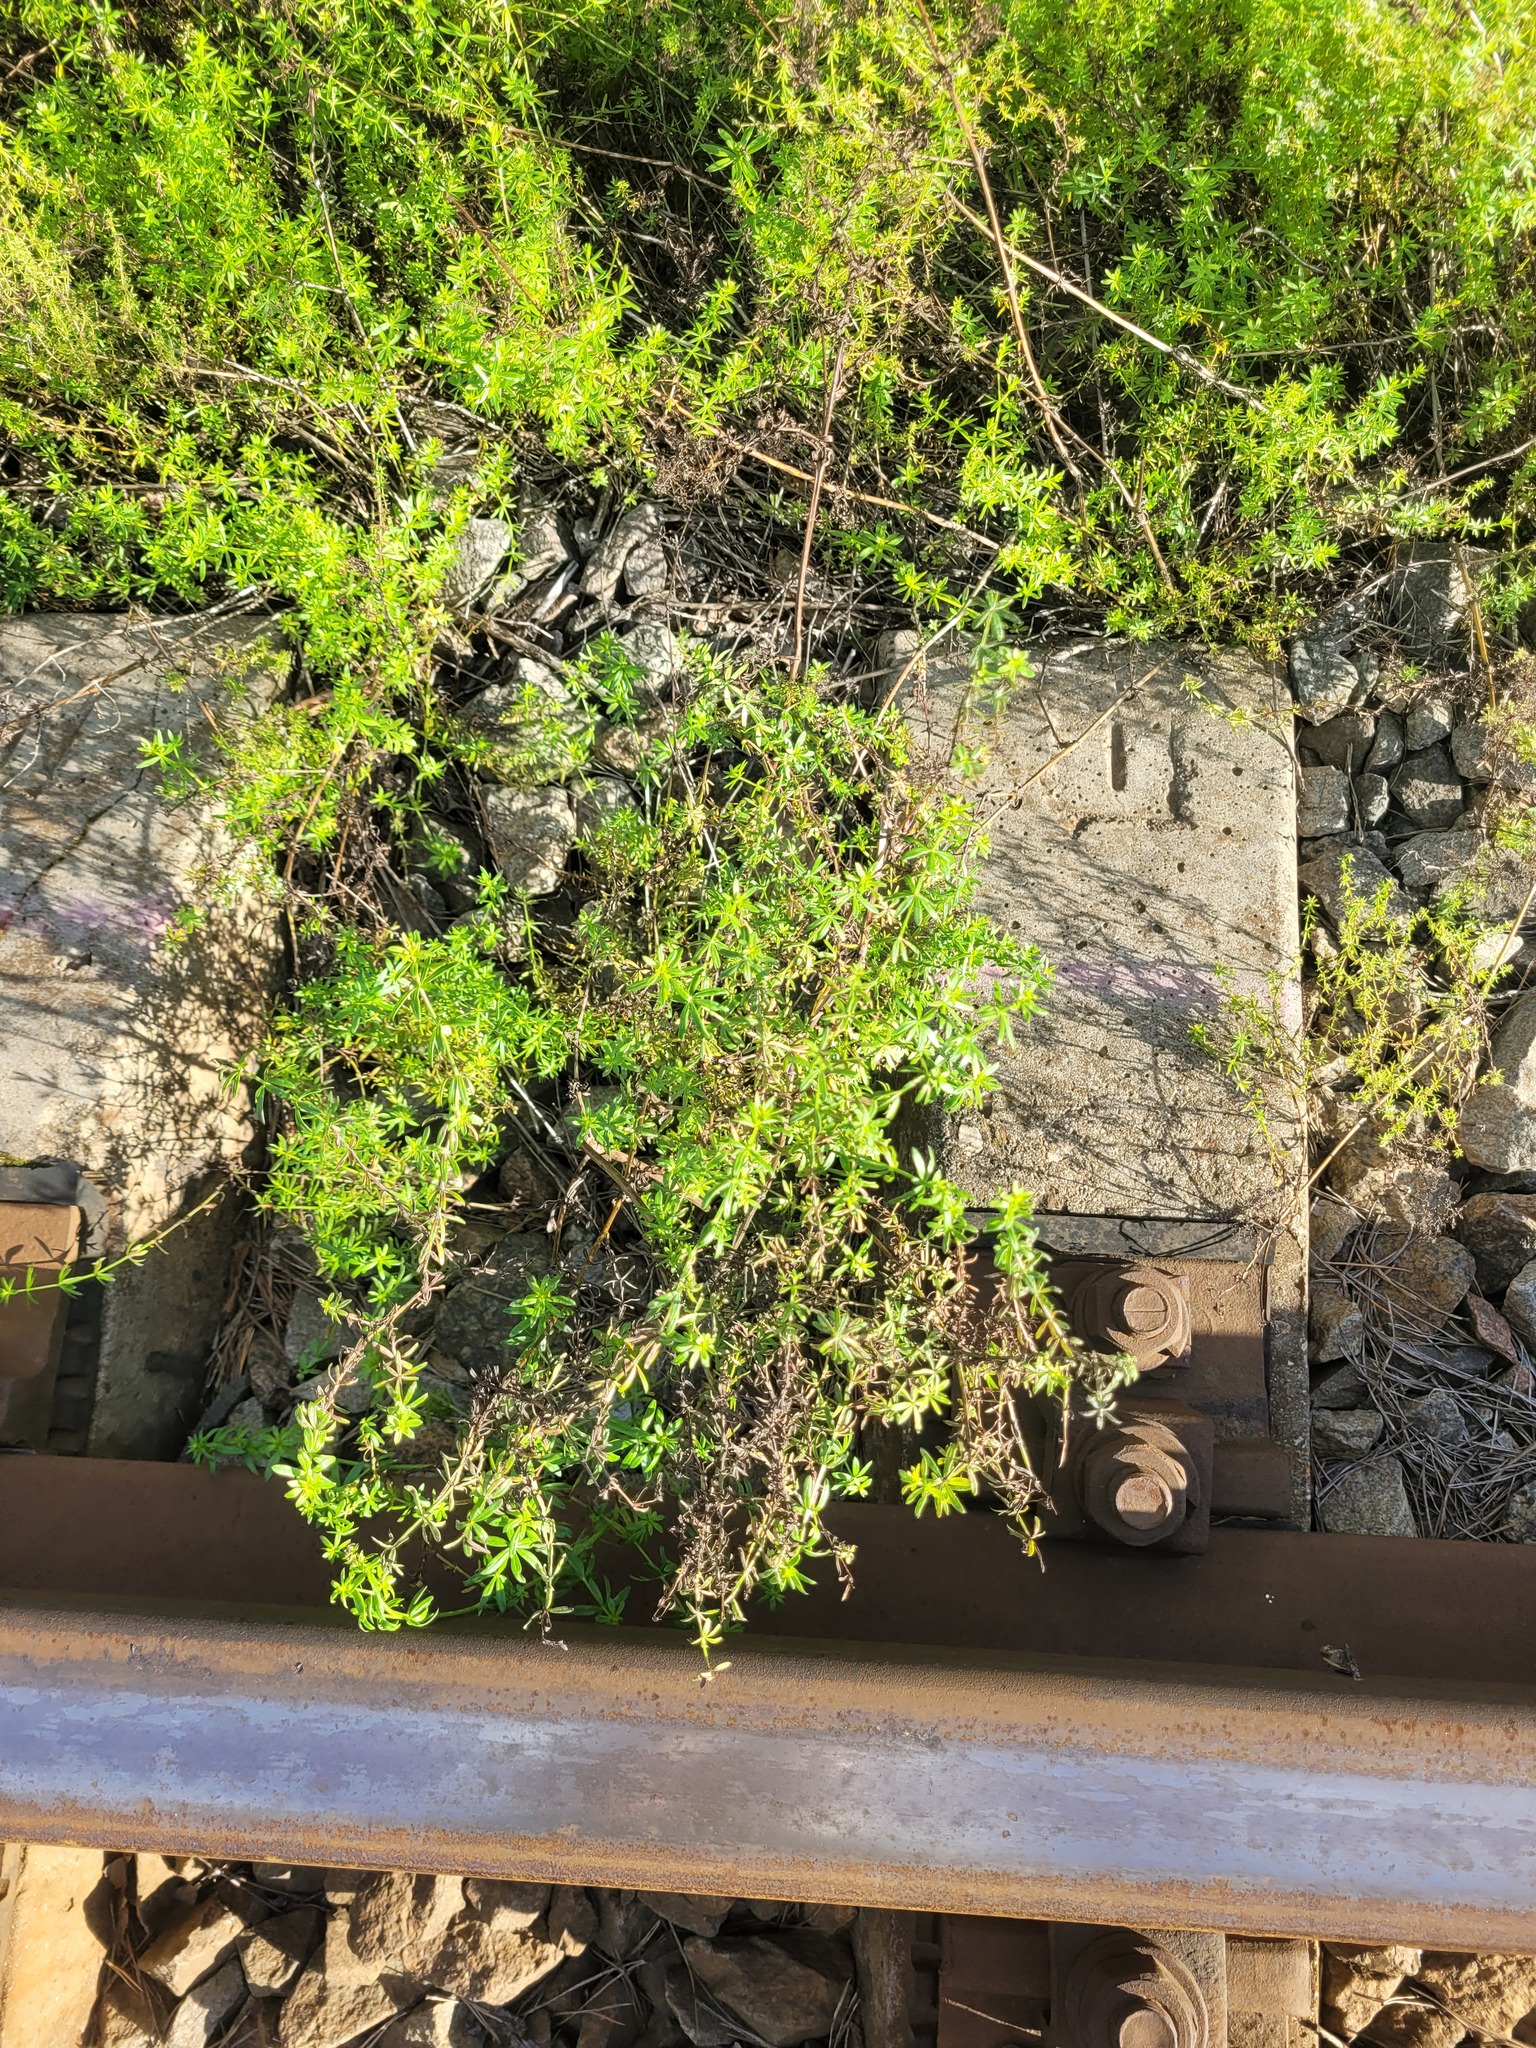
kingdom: Plantae
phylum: Tracheophyta
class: Magnoliopsida
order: Gentianales
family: Rubiaceae
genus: Galium
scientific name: Galium mollugo
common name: Hedge bedstraw
